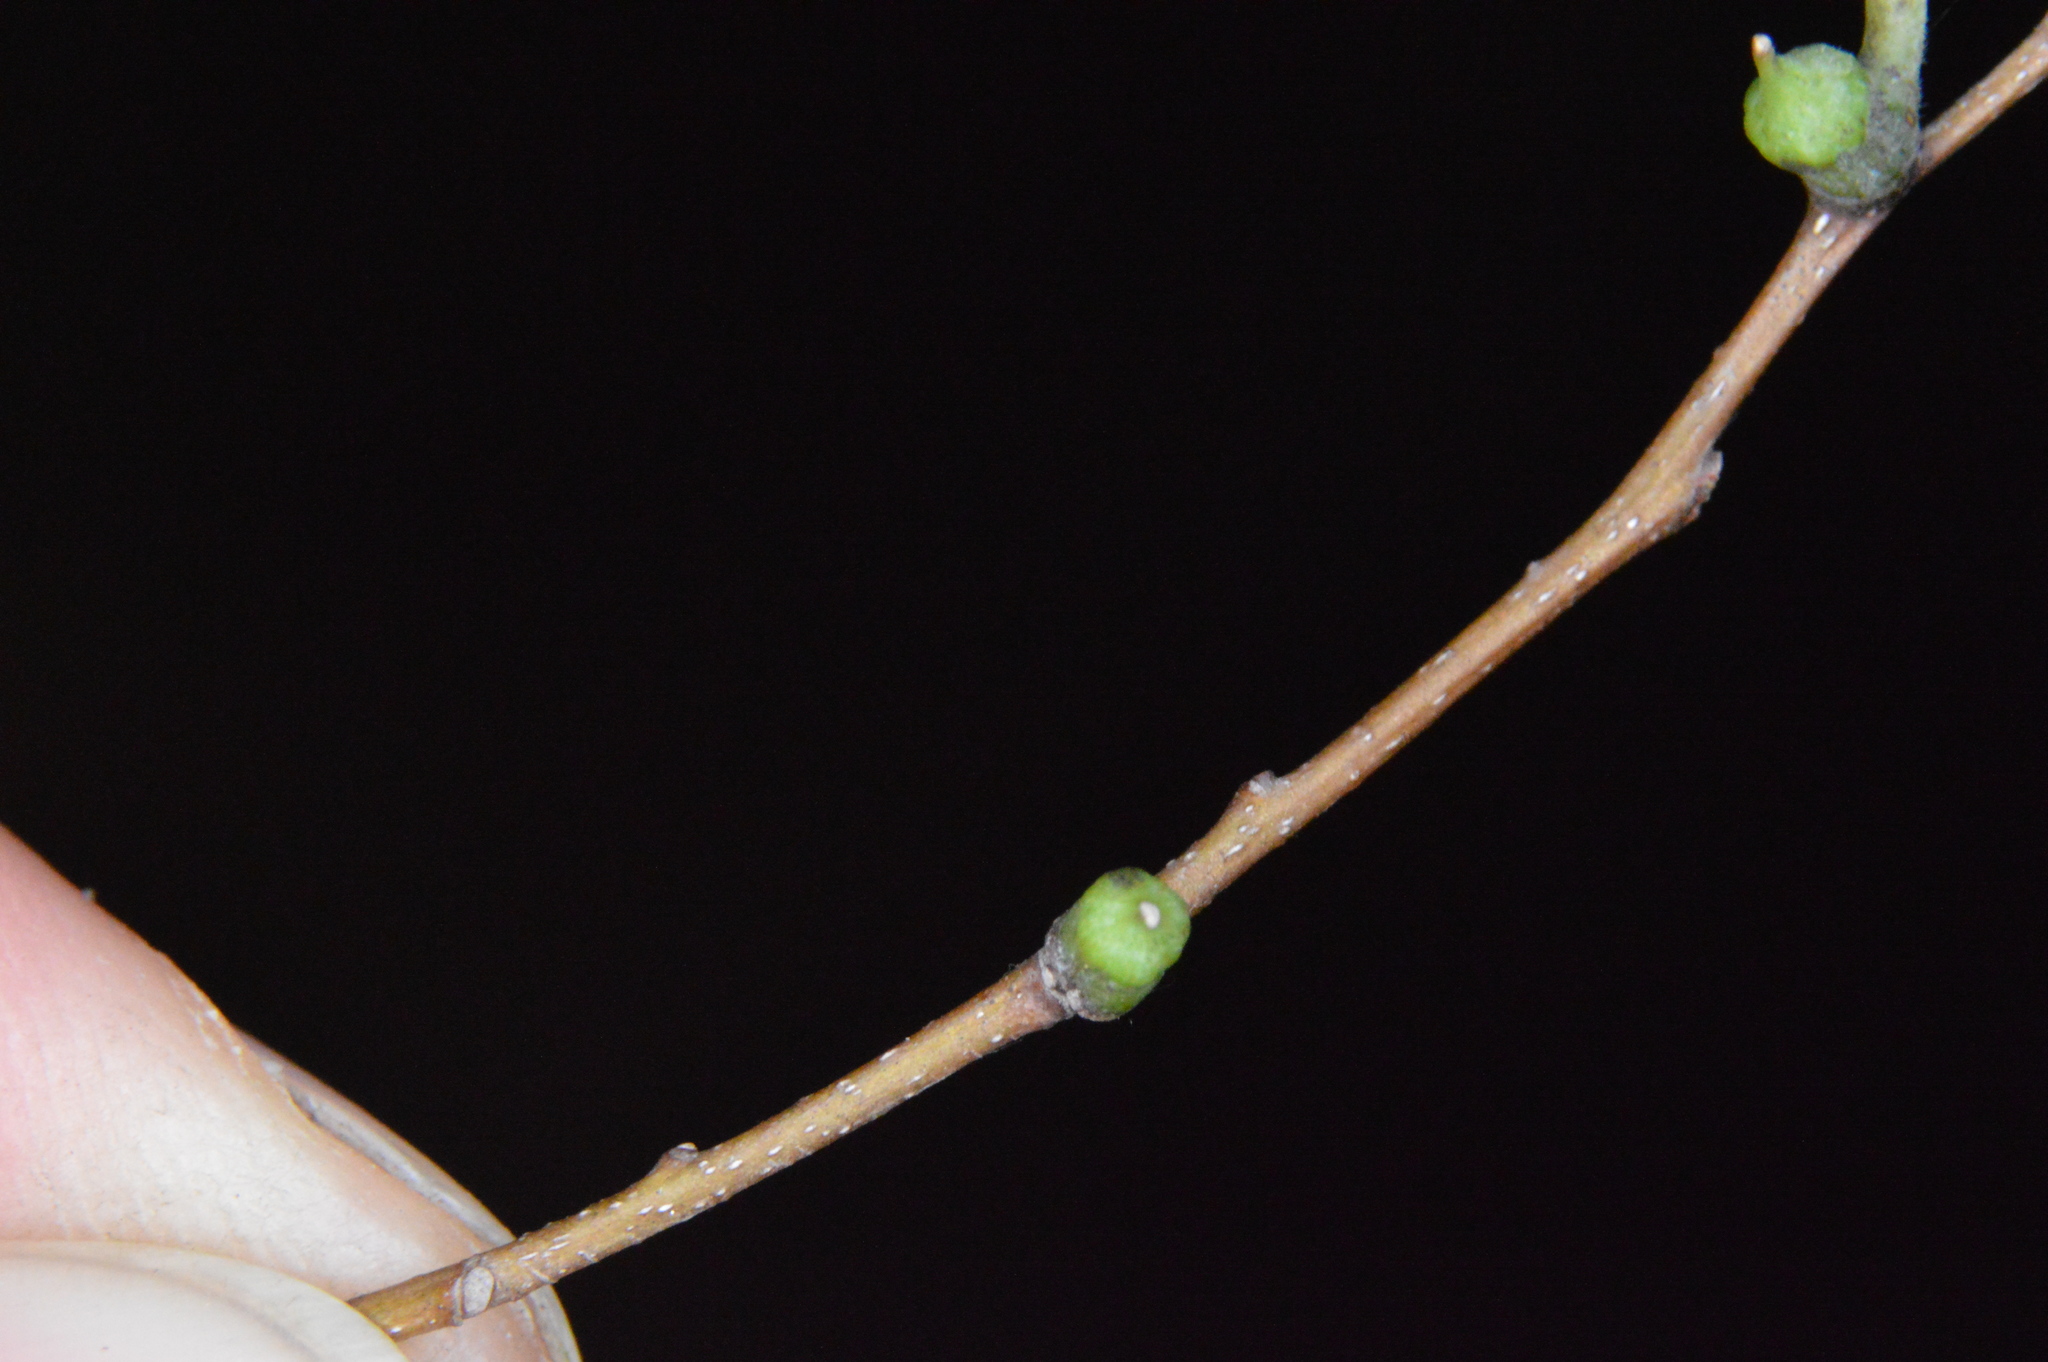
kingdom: Animalia
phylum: Arthropoda
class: Insecta
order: Diptera
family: Cecidomyiidae
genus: Celticecis
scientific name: Celticecis ramicola
